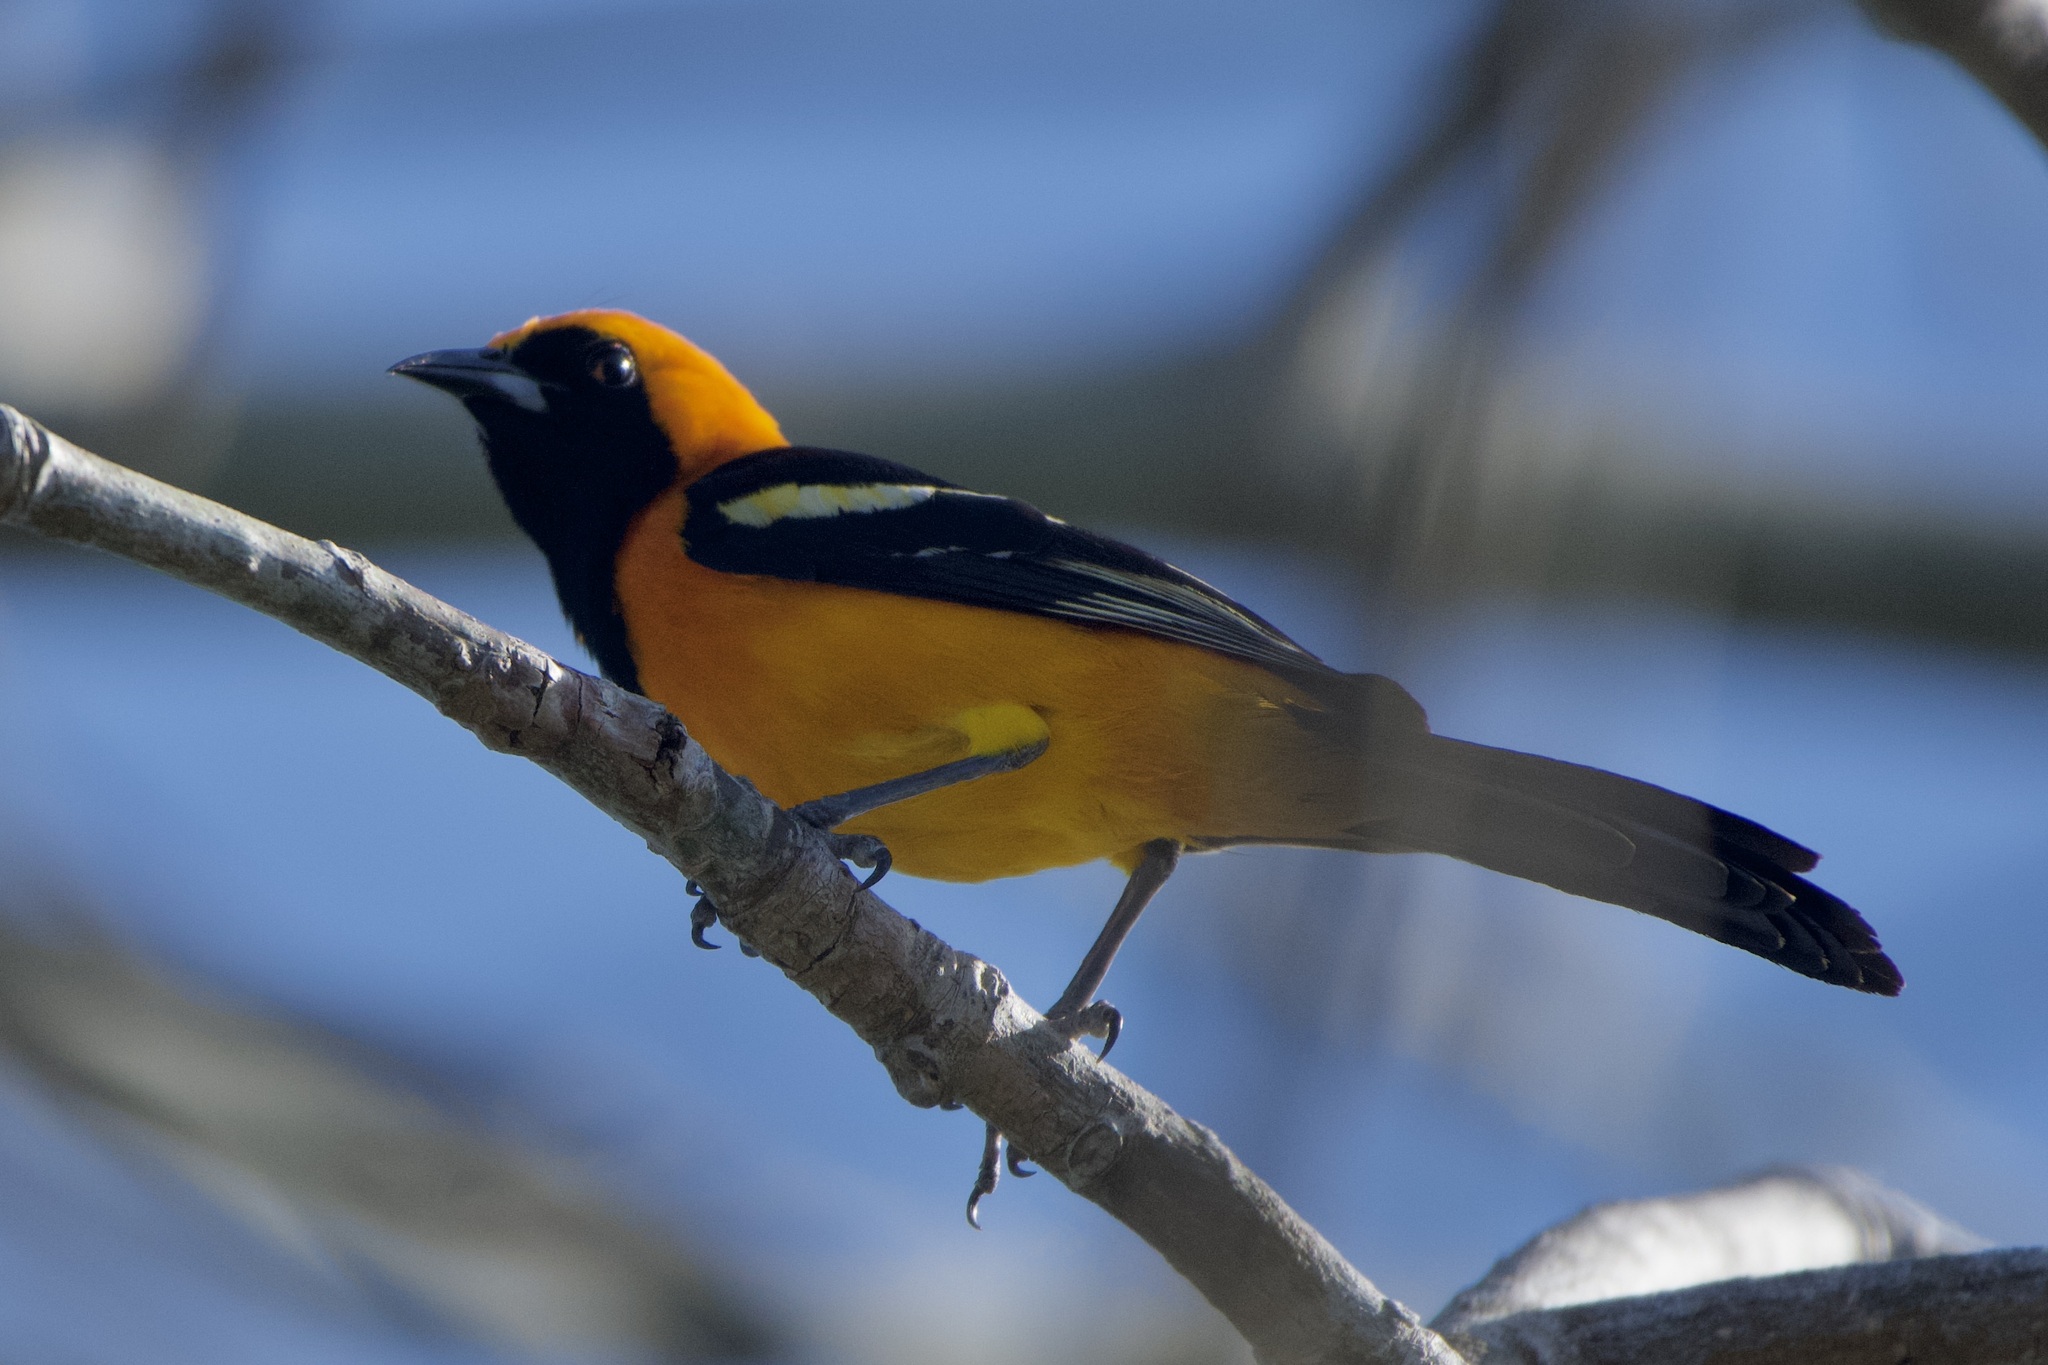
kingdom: Animalia
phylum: Chordata
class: Aves
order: Passeriformes
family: Icteridae
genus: Icterus
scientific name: Icterus cucullatus
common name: Hooded oriole
